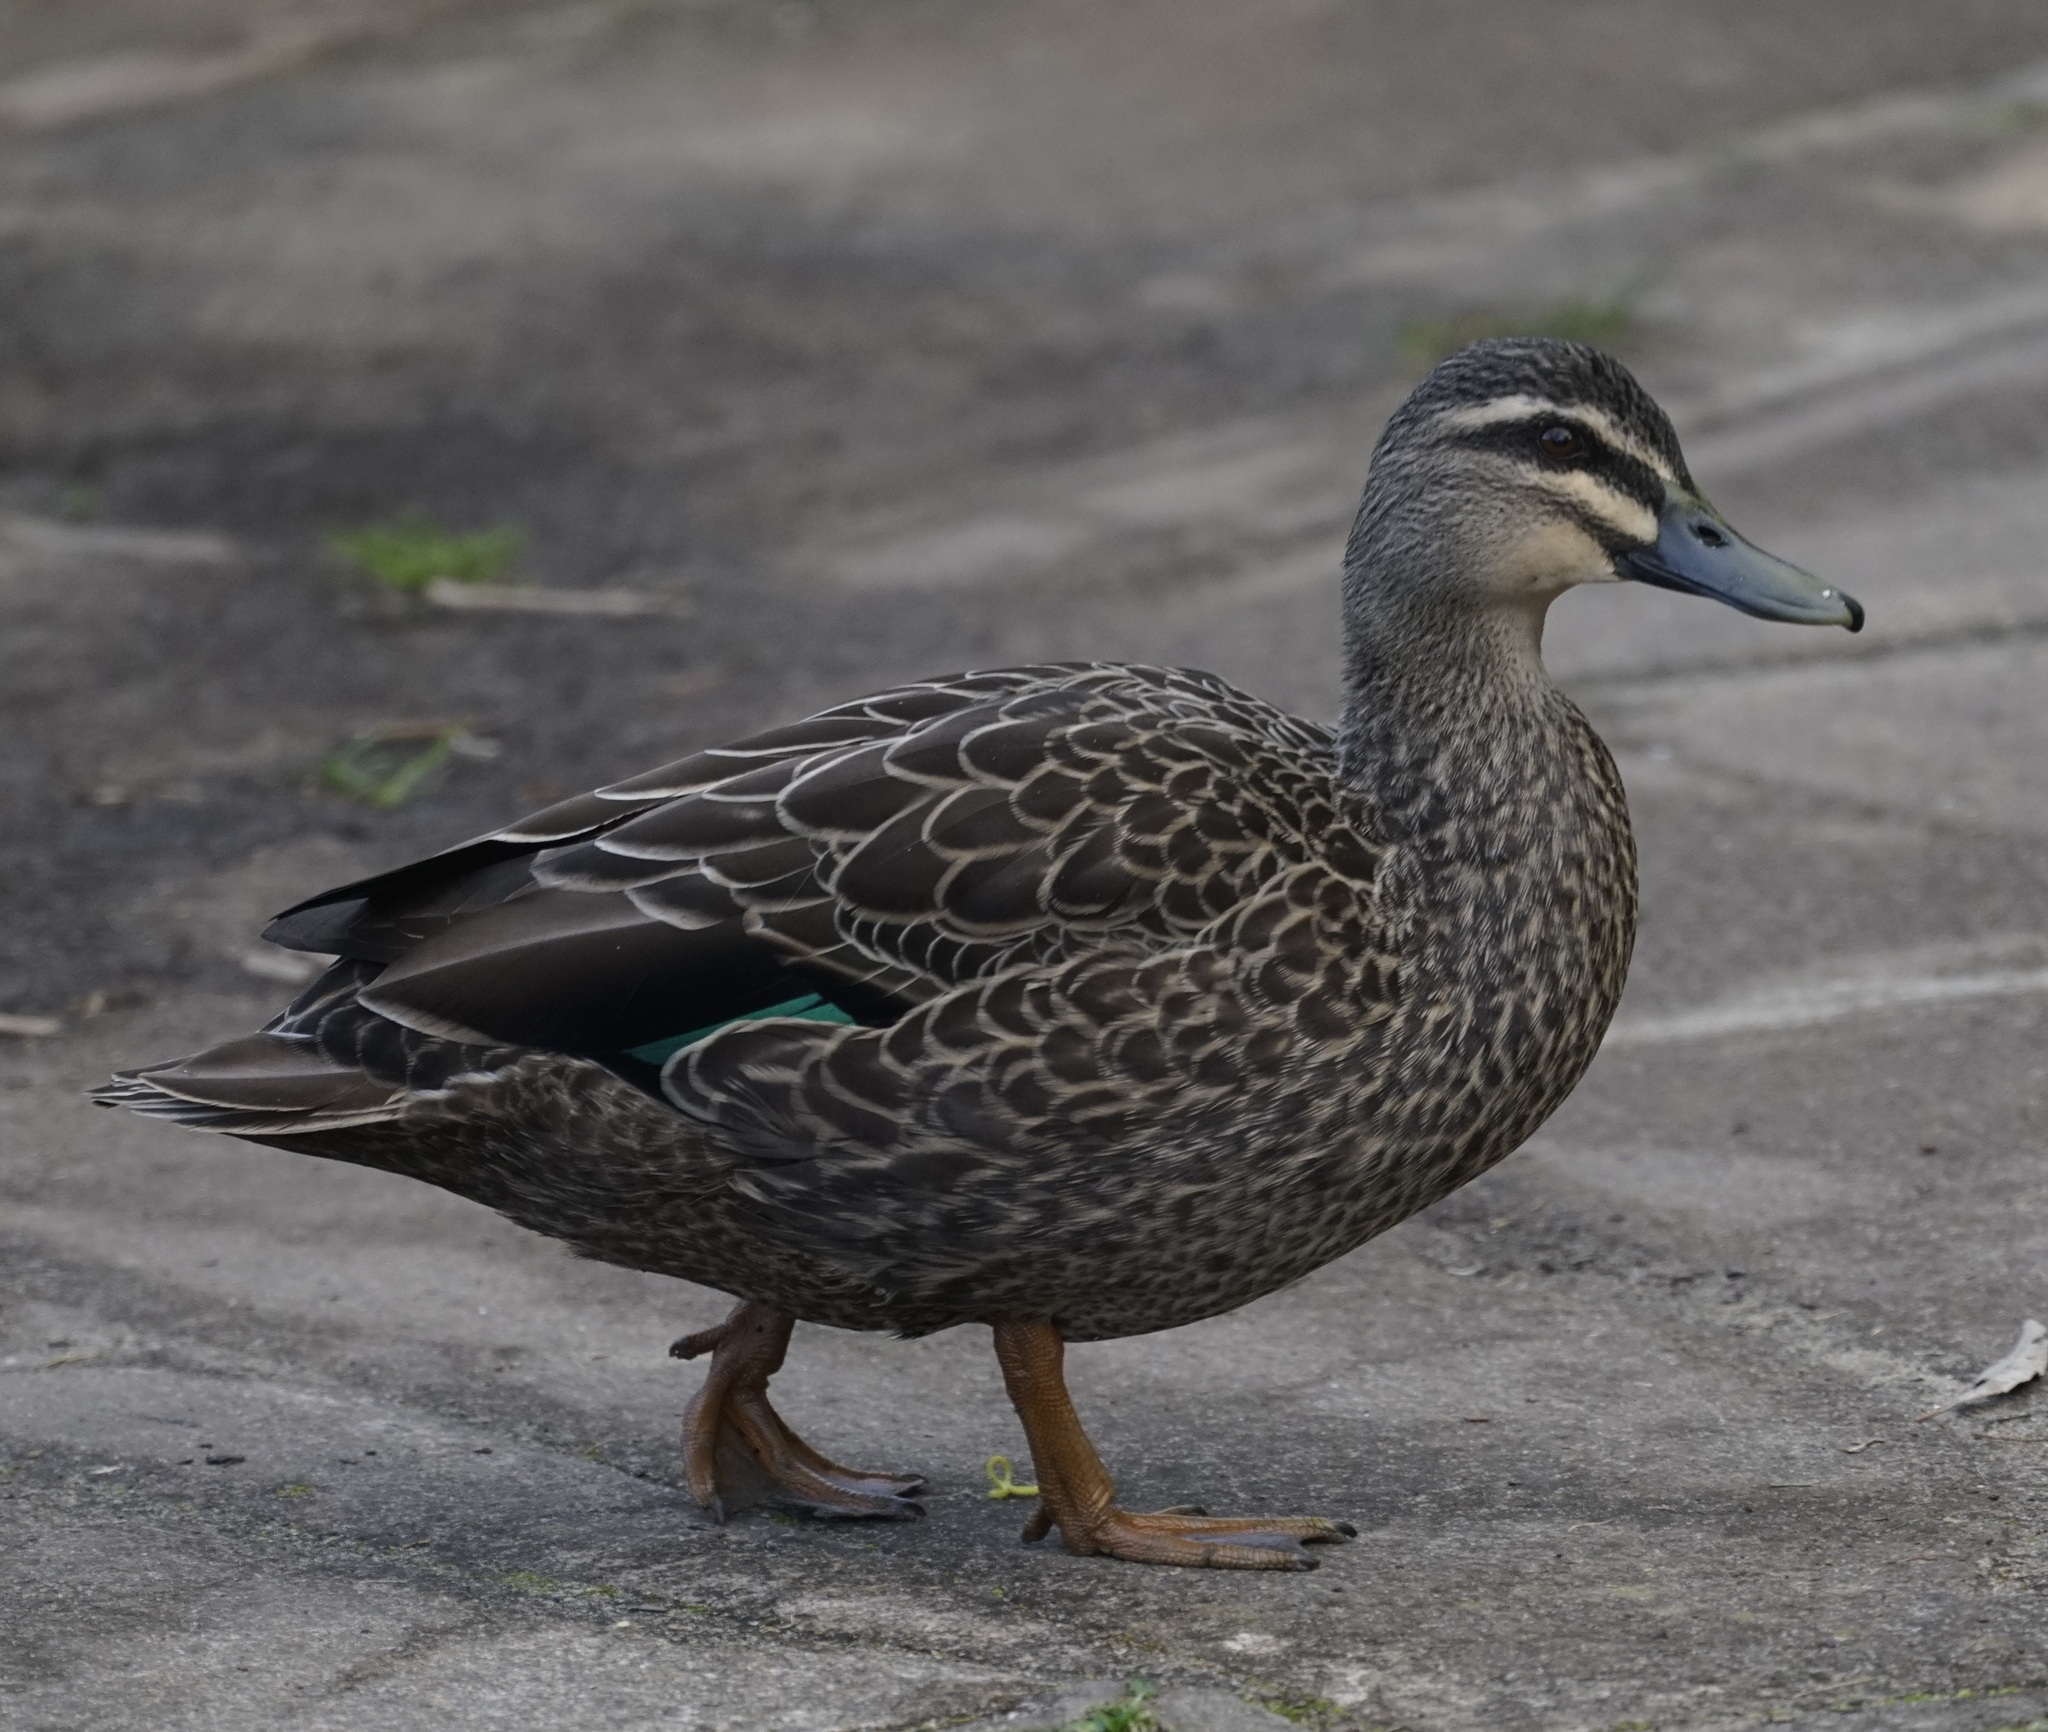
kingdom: Animalia
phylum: Chordata
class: Aves
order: Anseriformes
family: Anatidae
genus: Anas
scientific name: Anas
